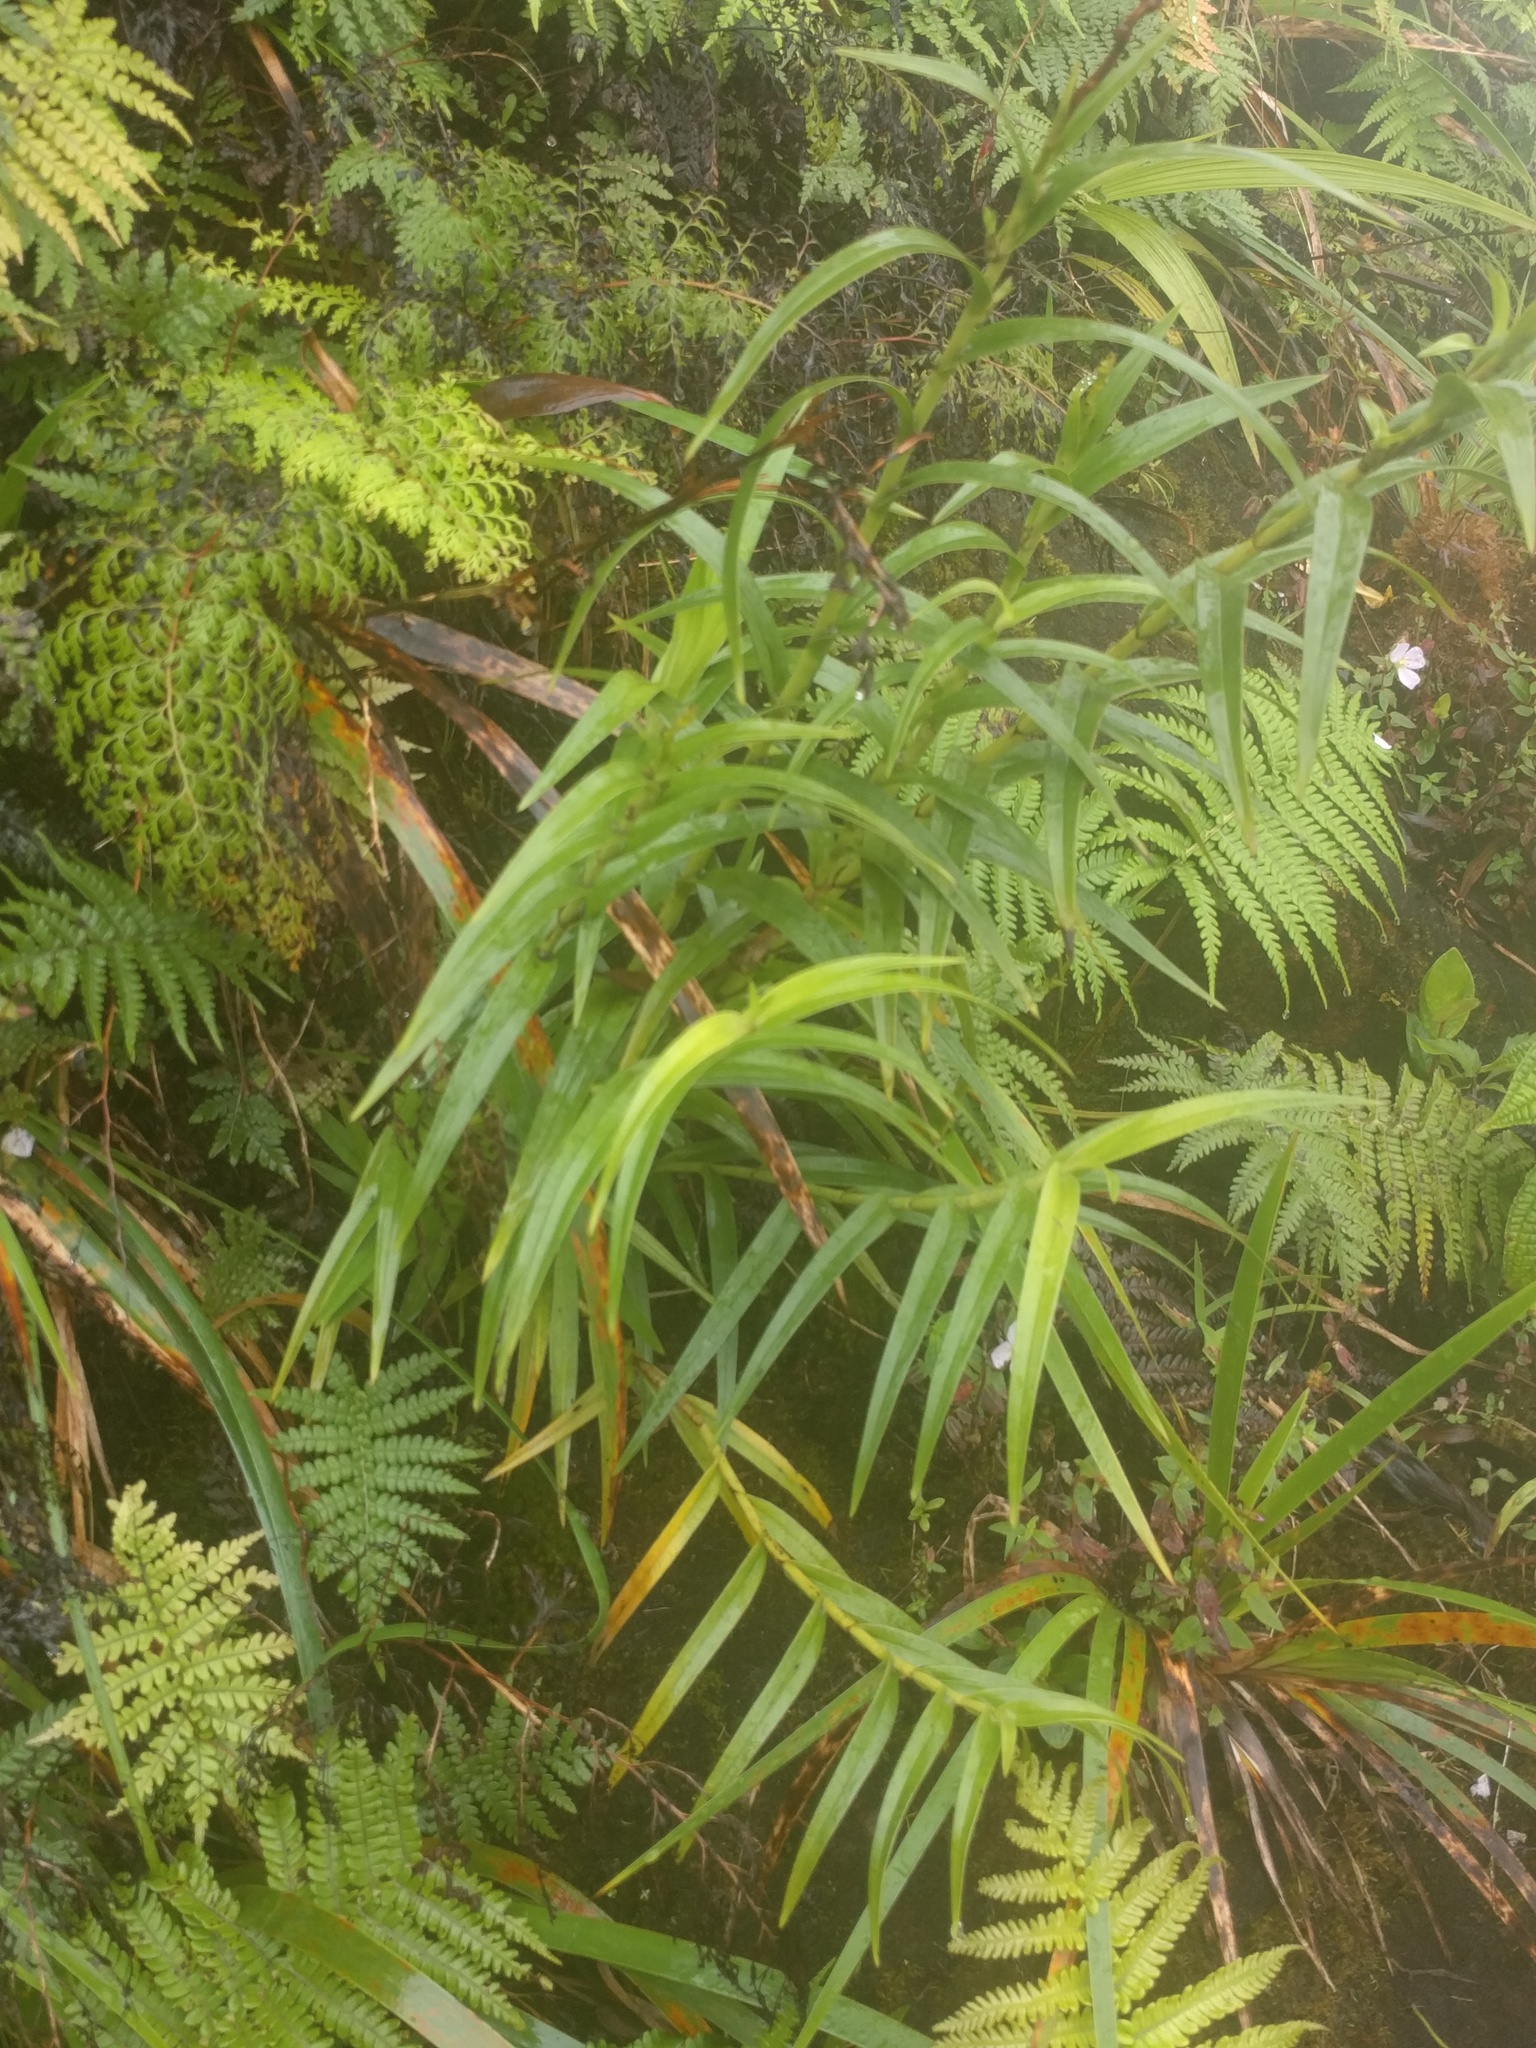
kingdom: Plantae
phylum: Tracheophyta
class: Liliopsida
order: Asparagales
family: Orchidaceae
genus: Arundina
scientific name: Arundina graminifolia
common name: Bamboo orchid
